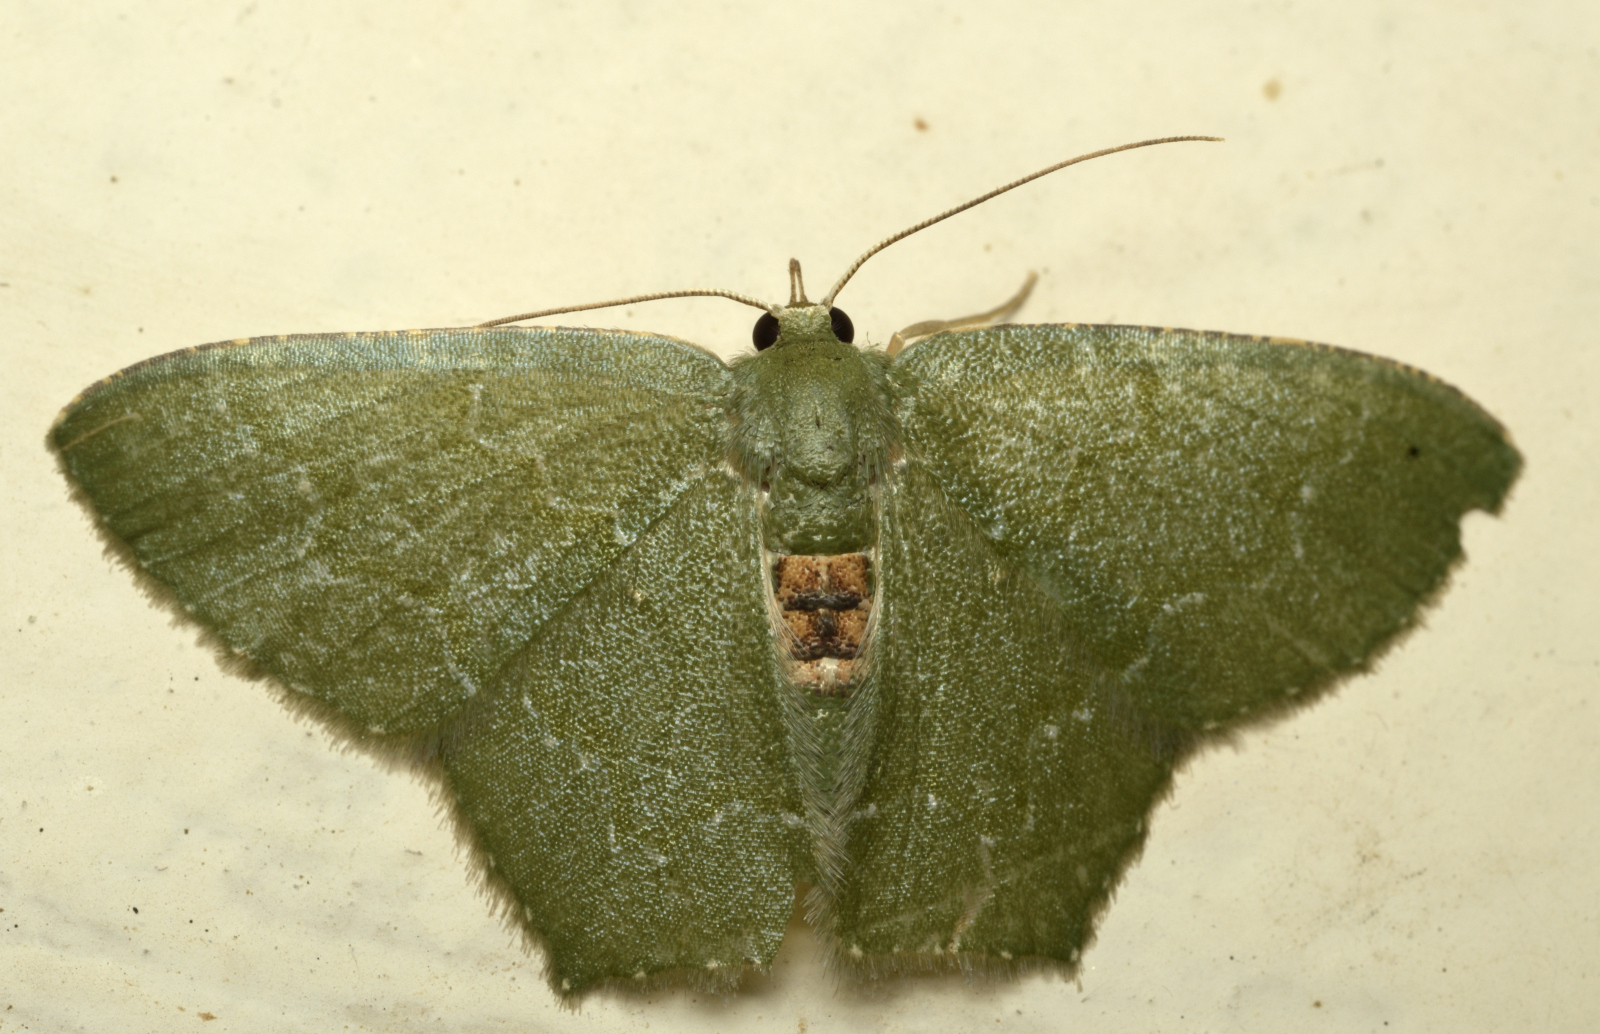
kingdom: Animalia
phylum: Arthropoda
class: Insecta
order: Lepidoptera
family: Geometridae
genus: Hemithea
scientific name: Hemithea tritonaria
